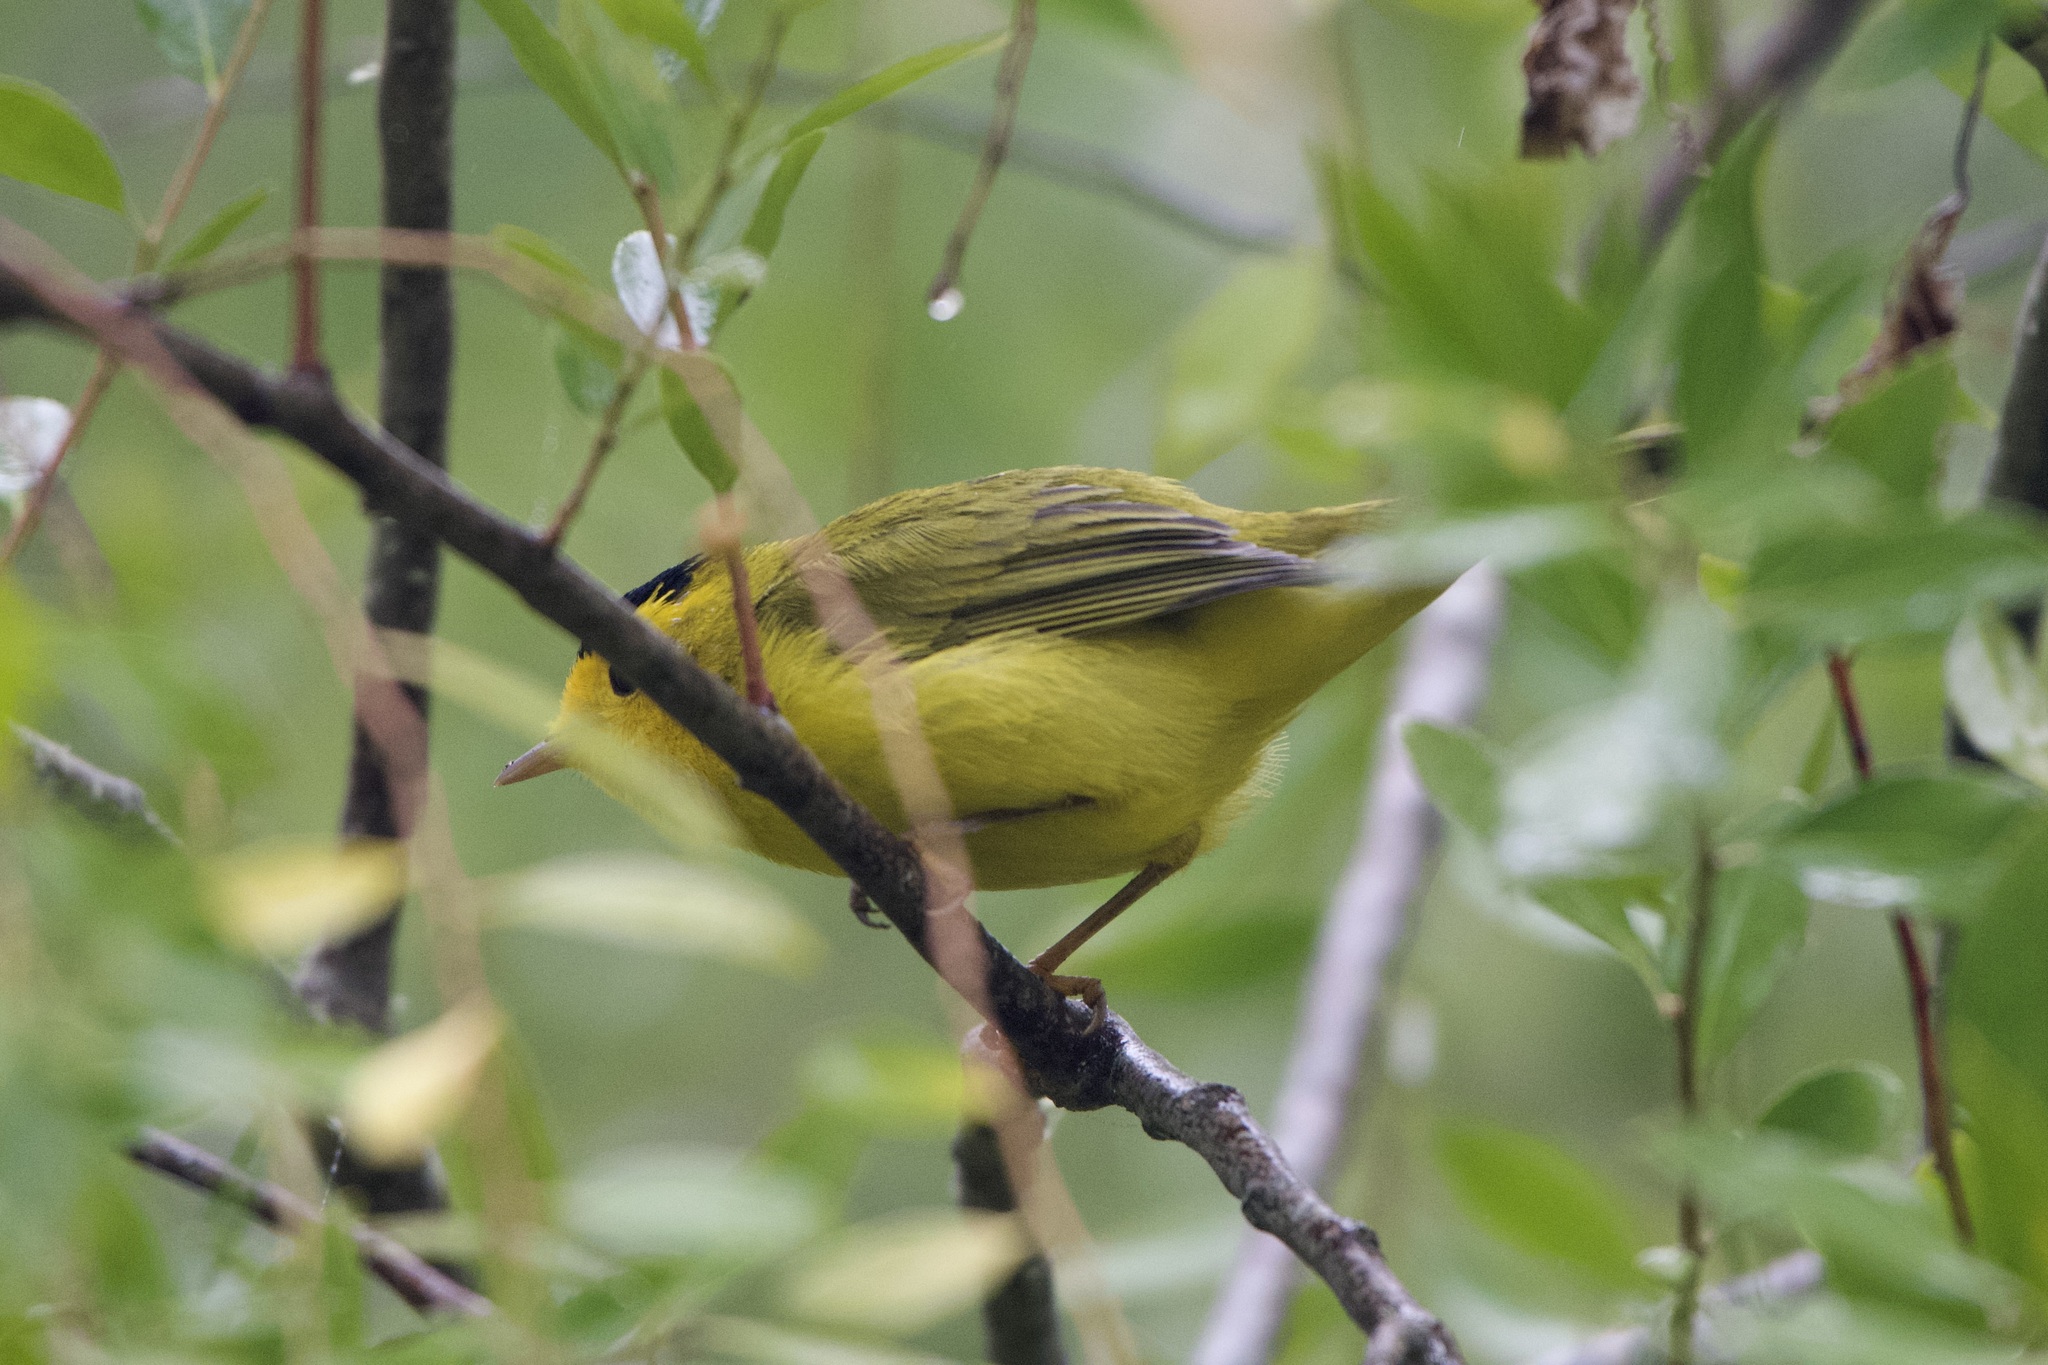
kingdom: Animalia
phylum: Chordata
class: Aves
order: Passeriformes
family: Parulidae
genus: Cardellina
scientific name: Cardellina pusilla
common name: Wilson's warbler
